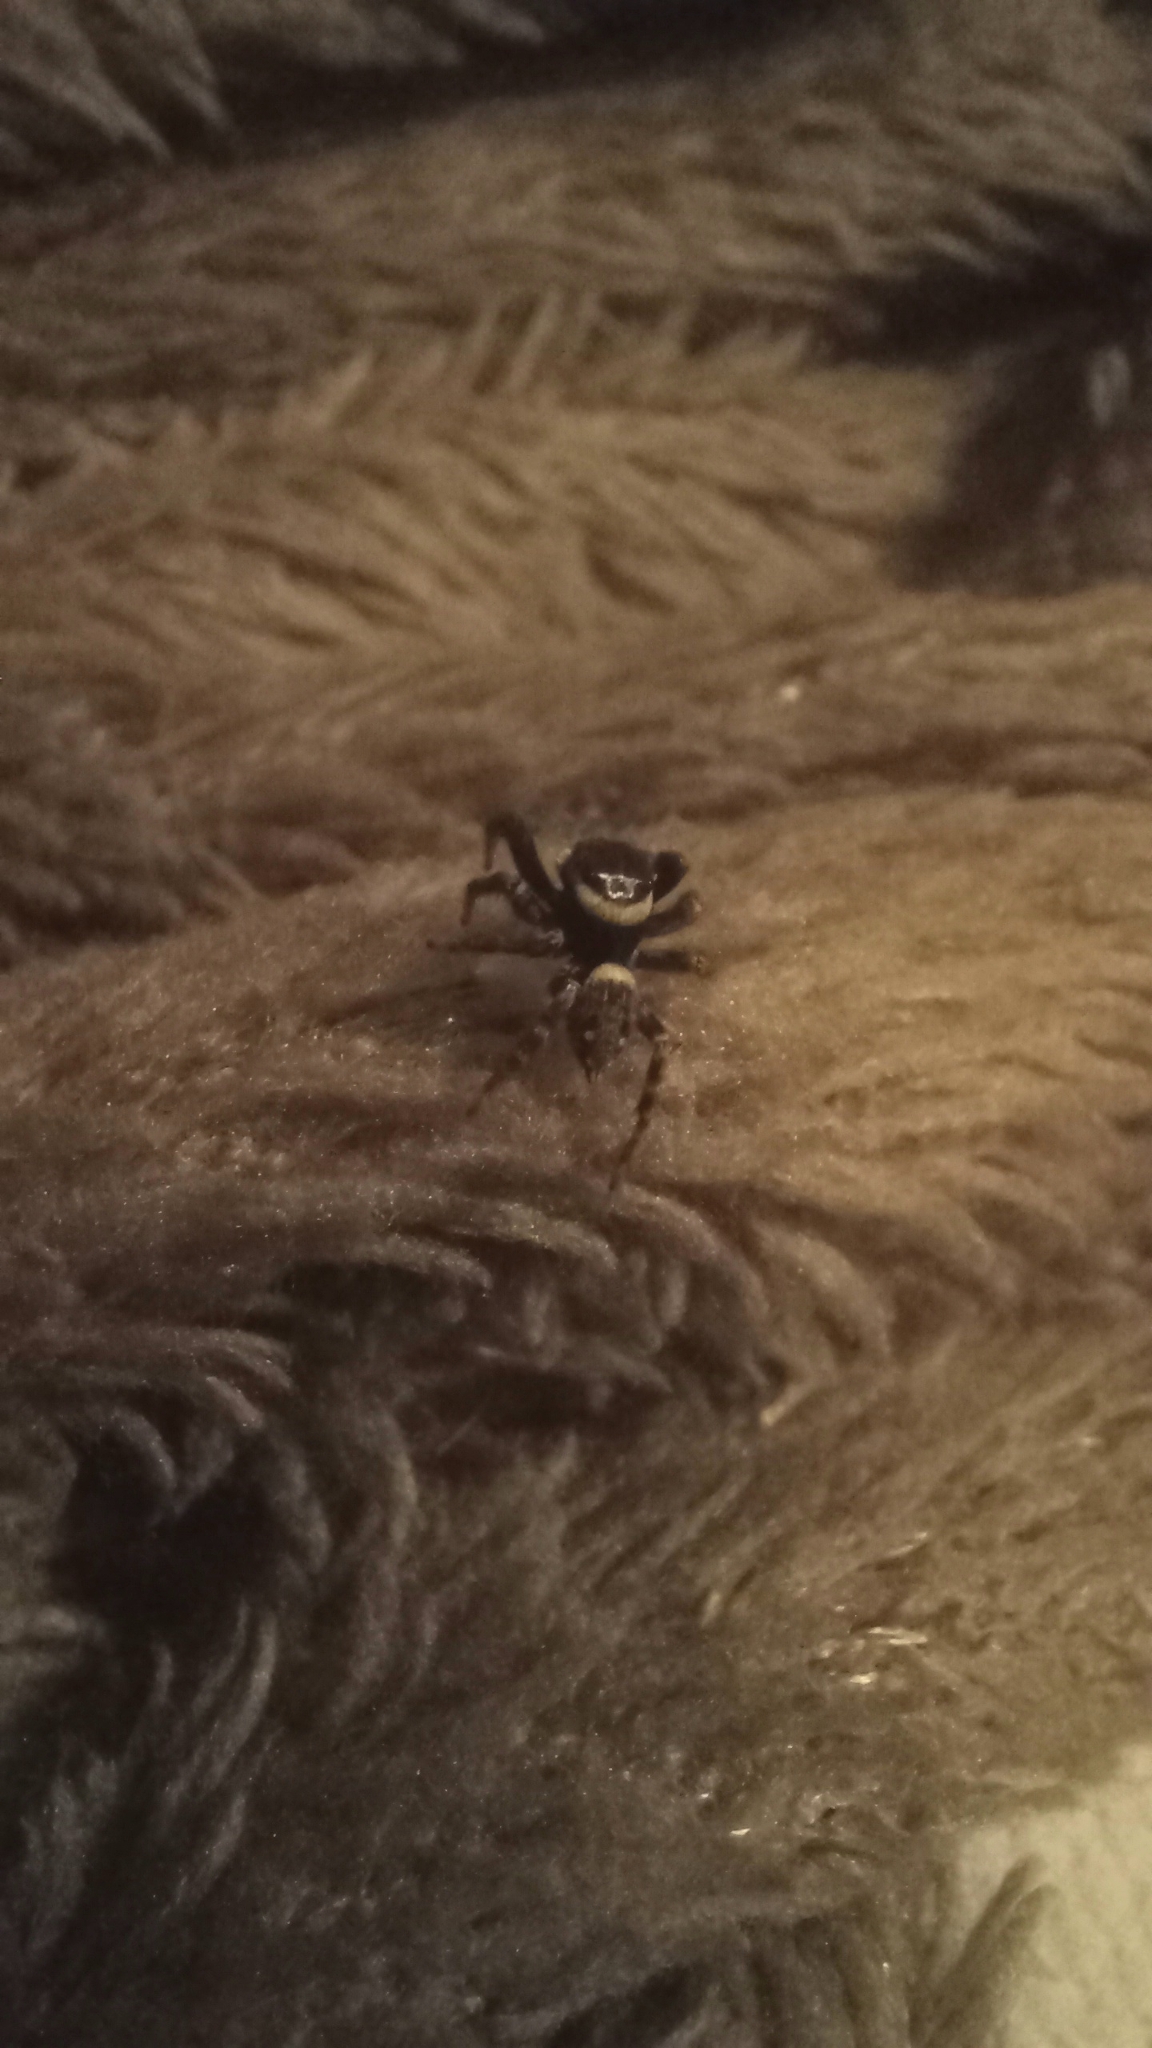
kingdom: Animalia
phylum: Arthropoda
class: Arachnida
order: Araneae
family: Salticidae
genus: Hasarius
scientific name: Hasarius adansoni
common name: Jumping spider
